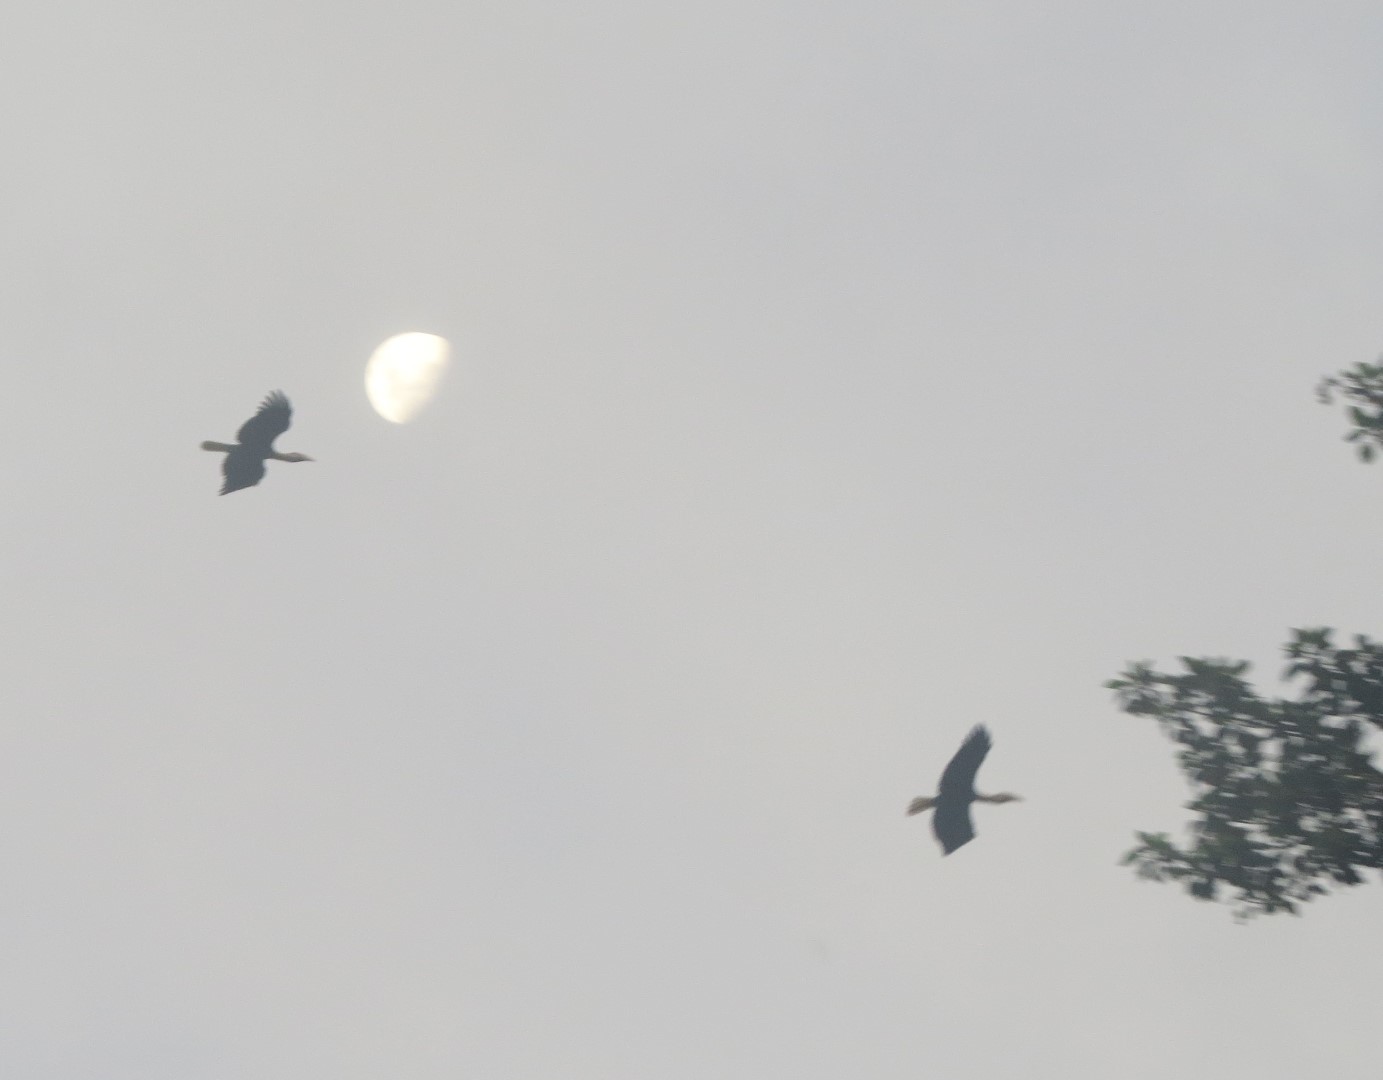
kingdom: Animalia
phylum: Chordata
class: Aves
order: Bucerotiformes
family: Bucerotidae
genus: Rhyticeros
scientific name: Rhyticeros plicatus
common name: Blyth's hornbill
